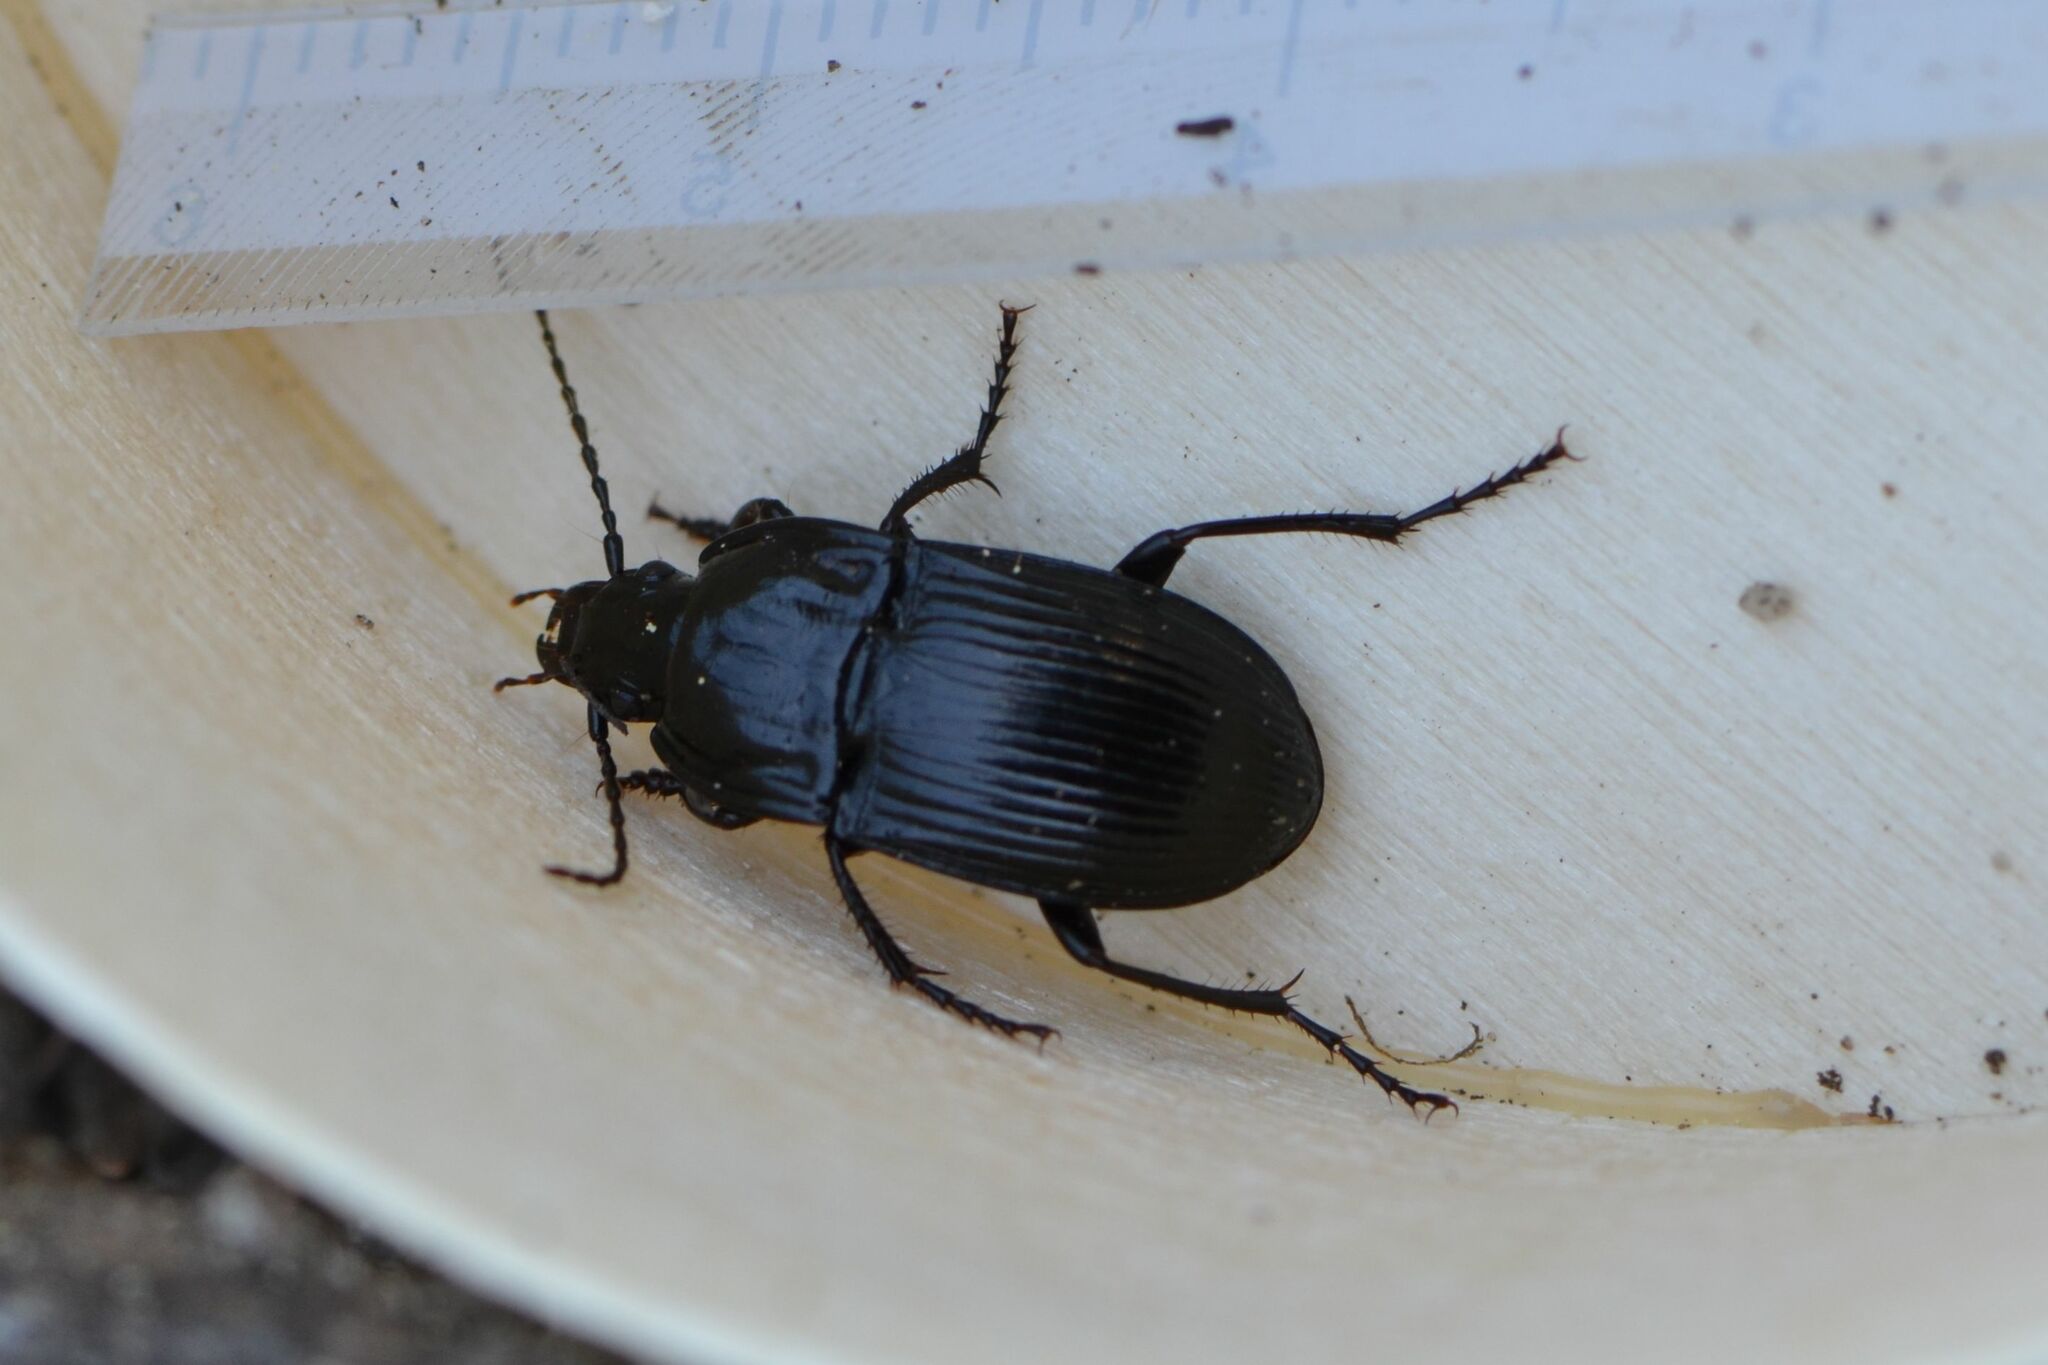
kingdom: Animalia
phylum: Arthropoda
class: Insecta
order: Coleoptera
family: Carabidae
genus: Abax
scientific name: Abax ovalis
